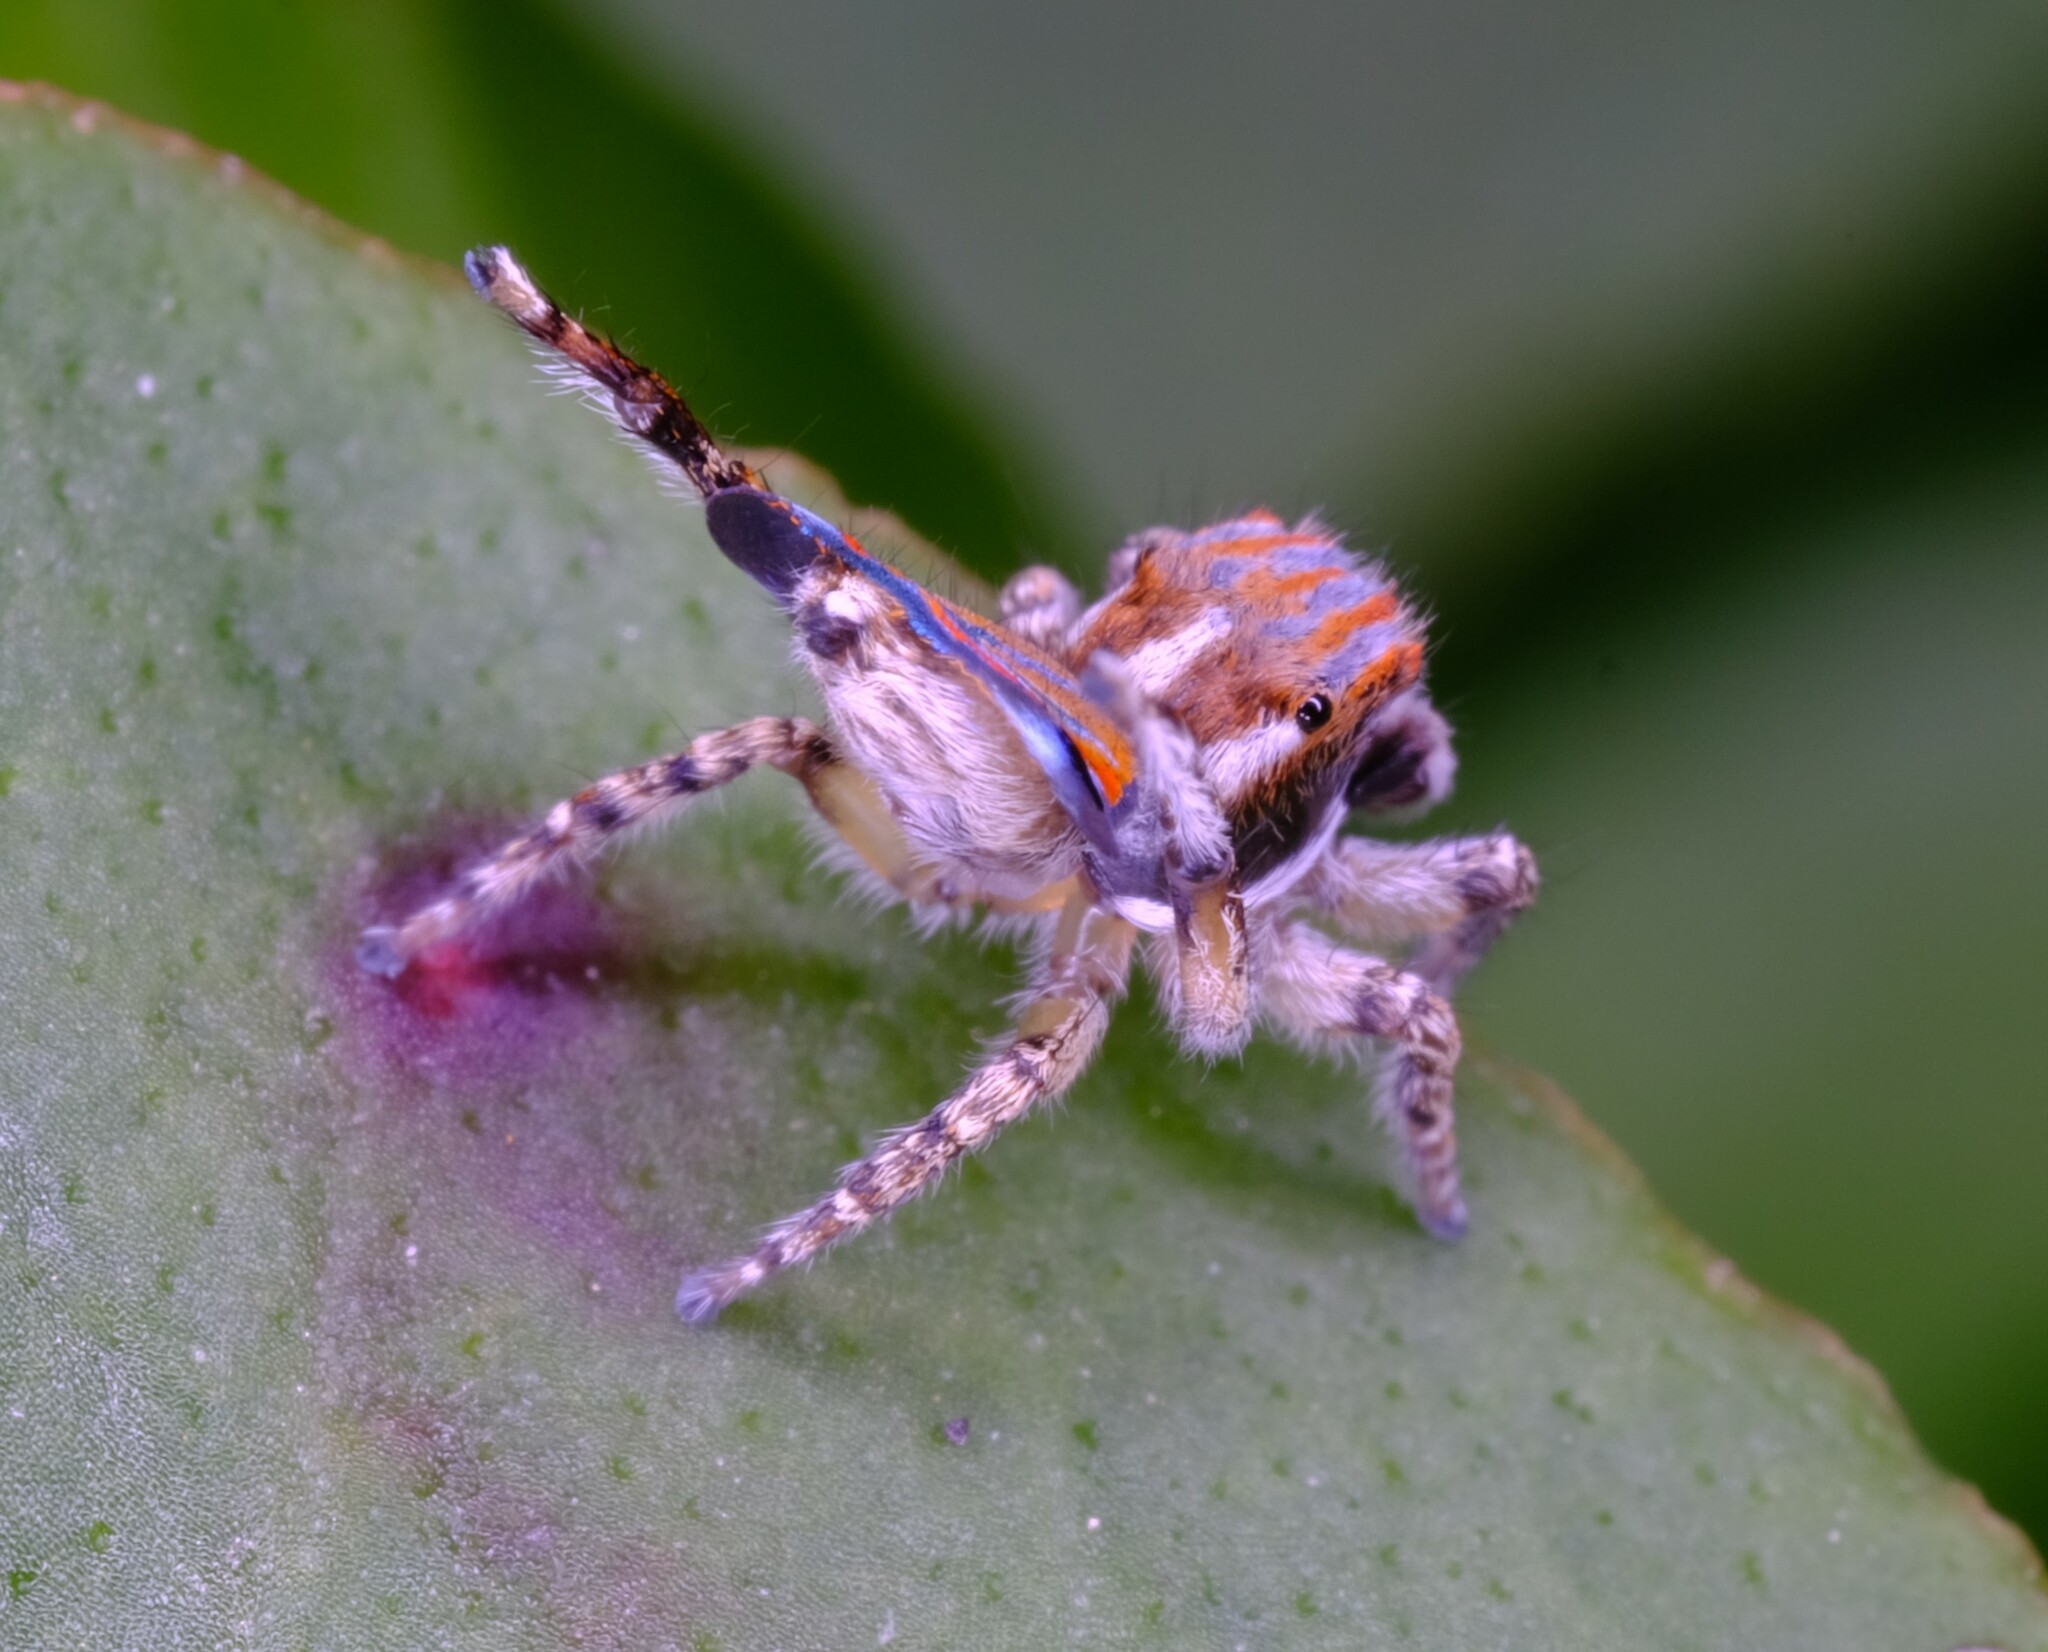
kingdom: Animalia
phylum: Arthropoda
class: Arachnida
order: Araneae
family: Salticidae
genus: Maratus
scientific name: Maratus tasmanicus
